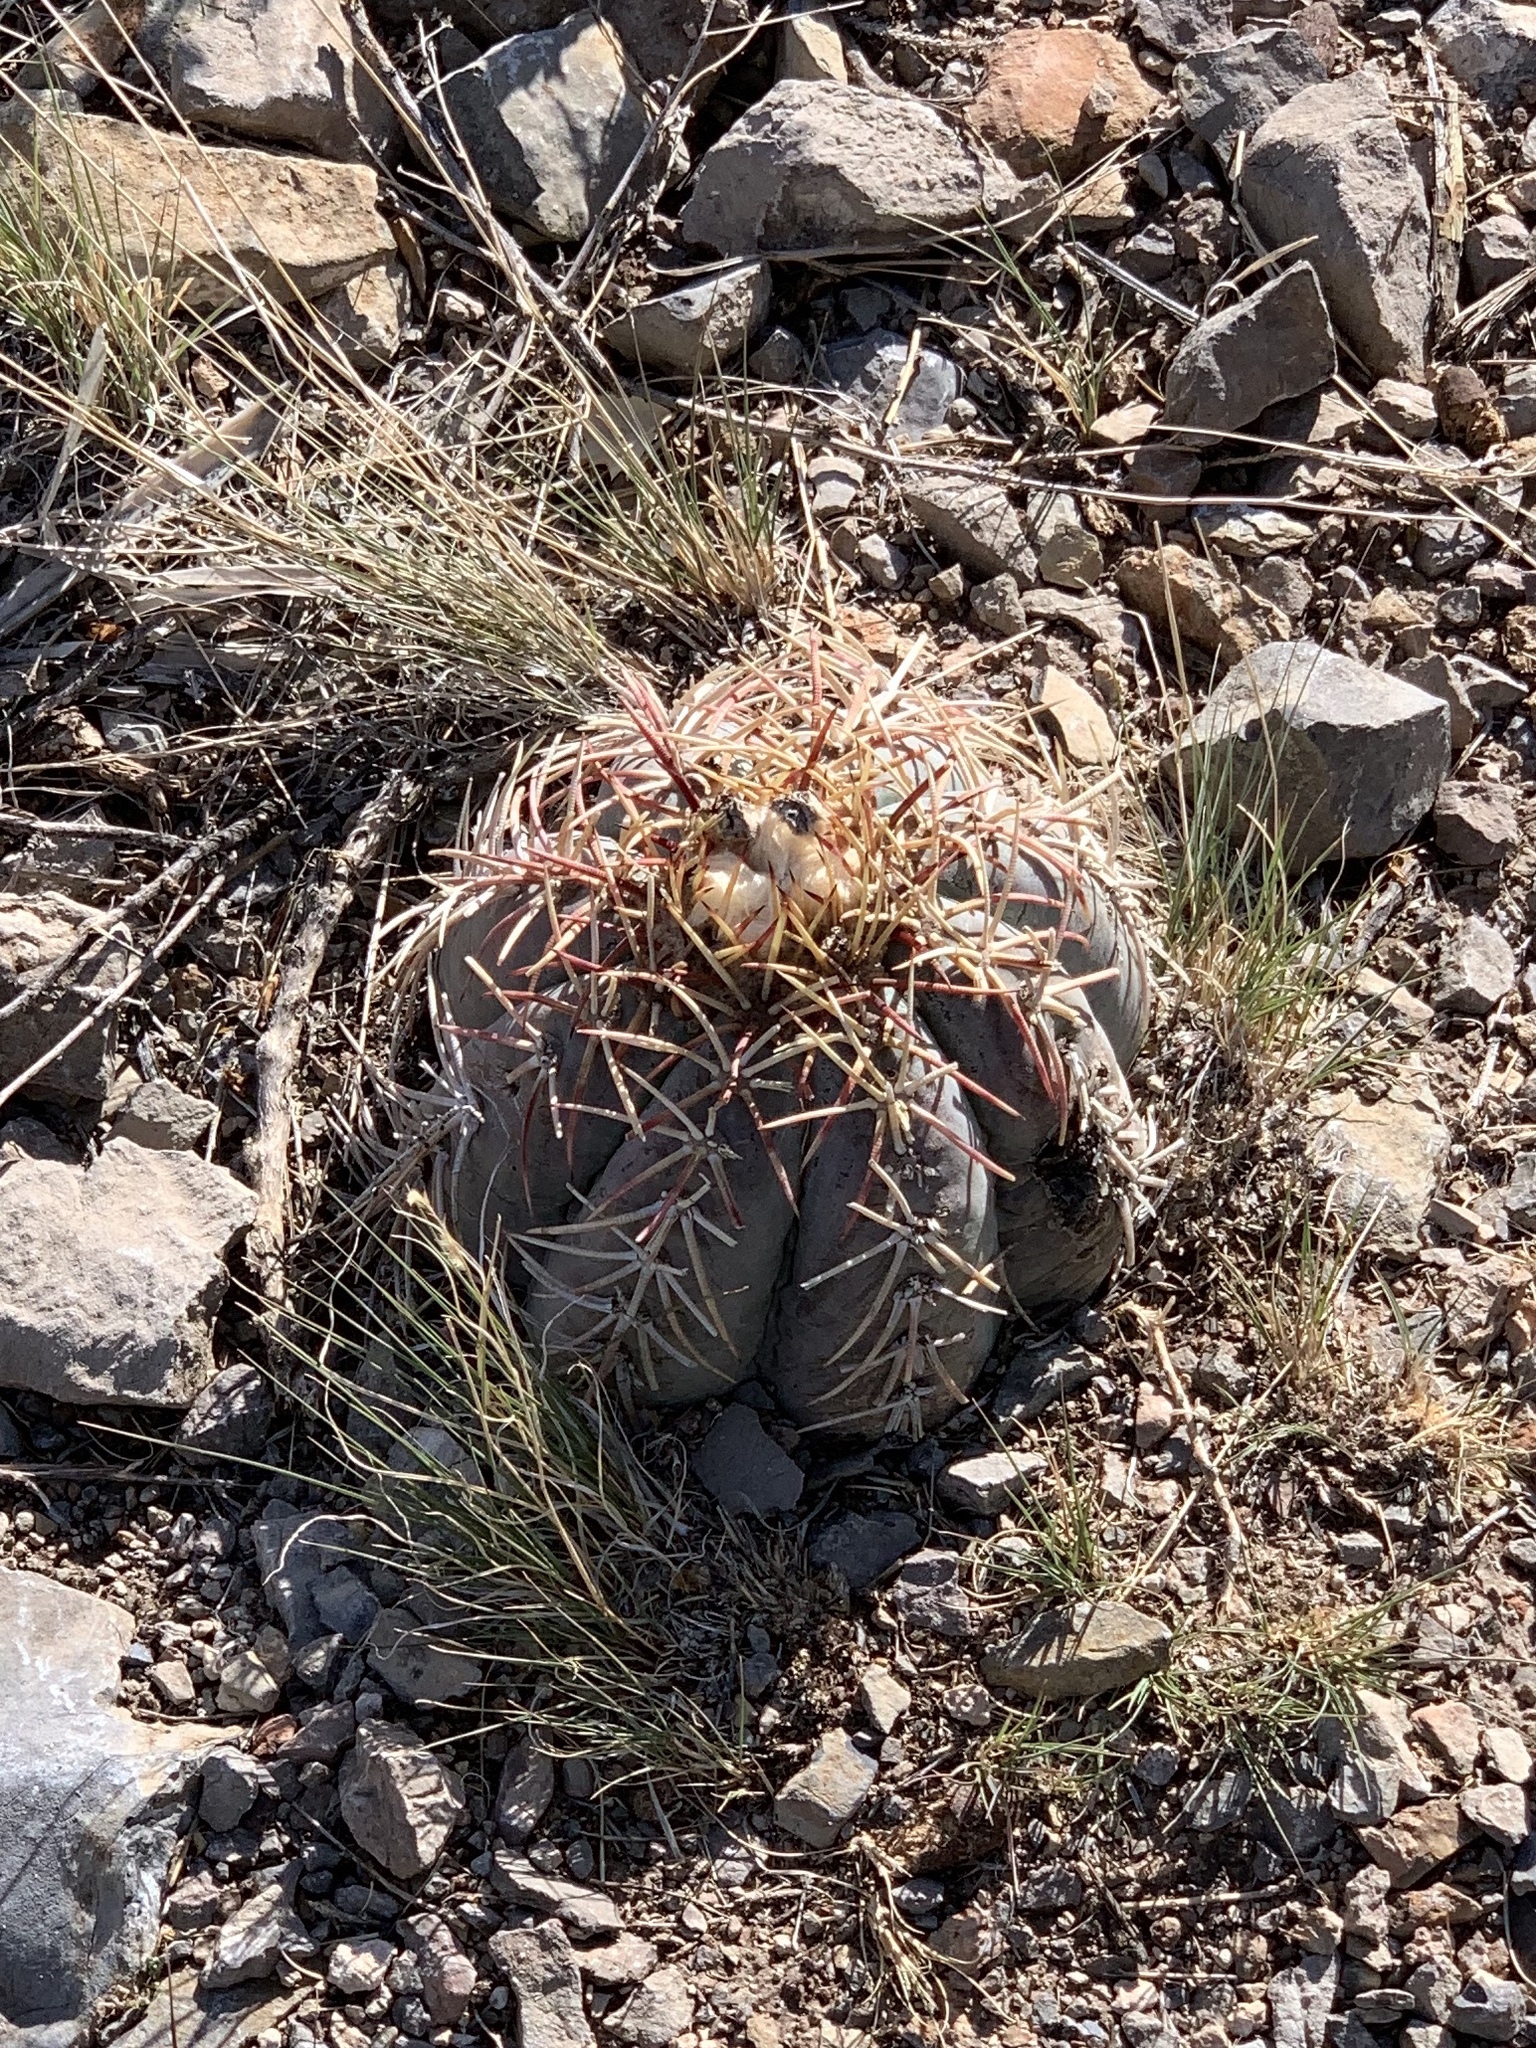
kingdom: Plantae
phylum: Tracheophyta
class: Magnoliopsida
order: Caryophyllales
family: Cactaceae
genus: Echinocactus
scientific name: Echinocactus horizonthalonius
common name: Devilshead
